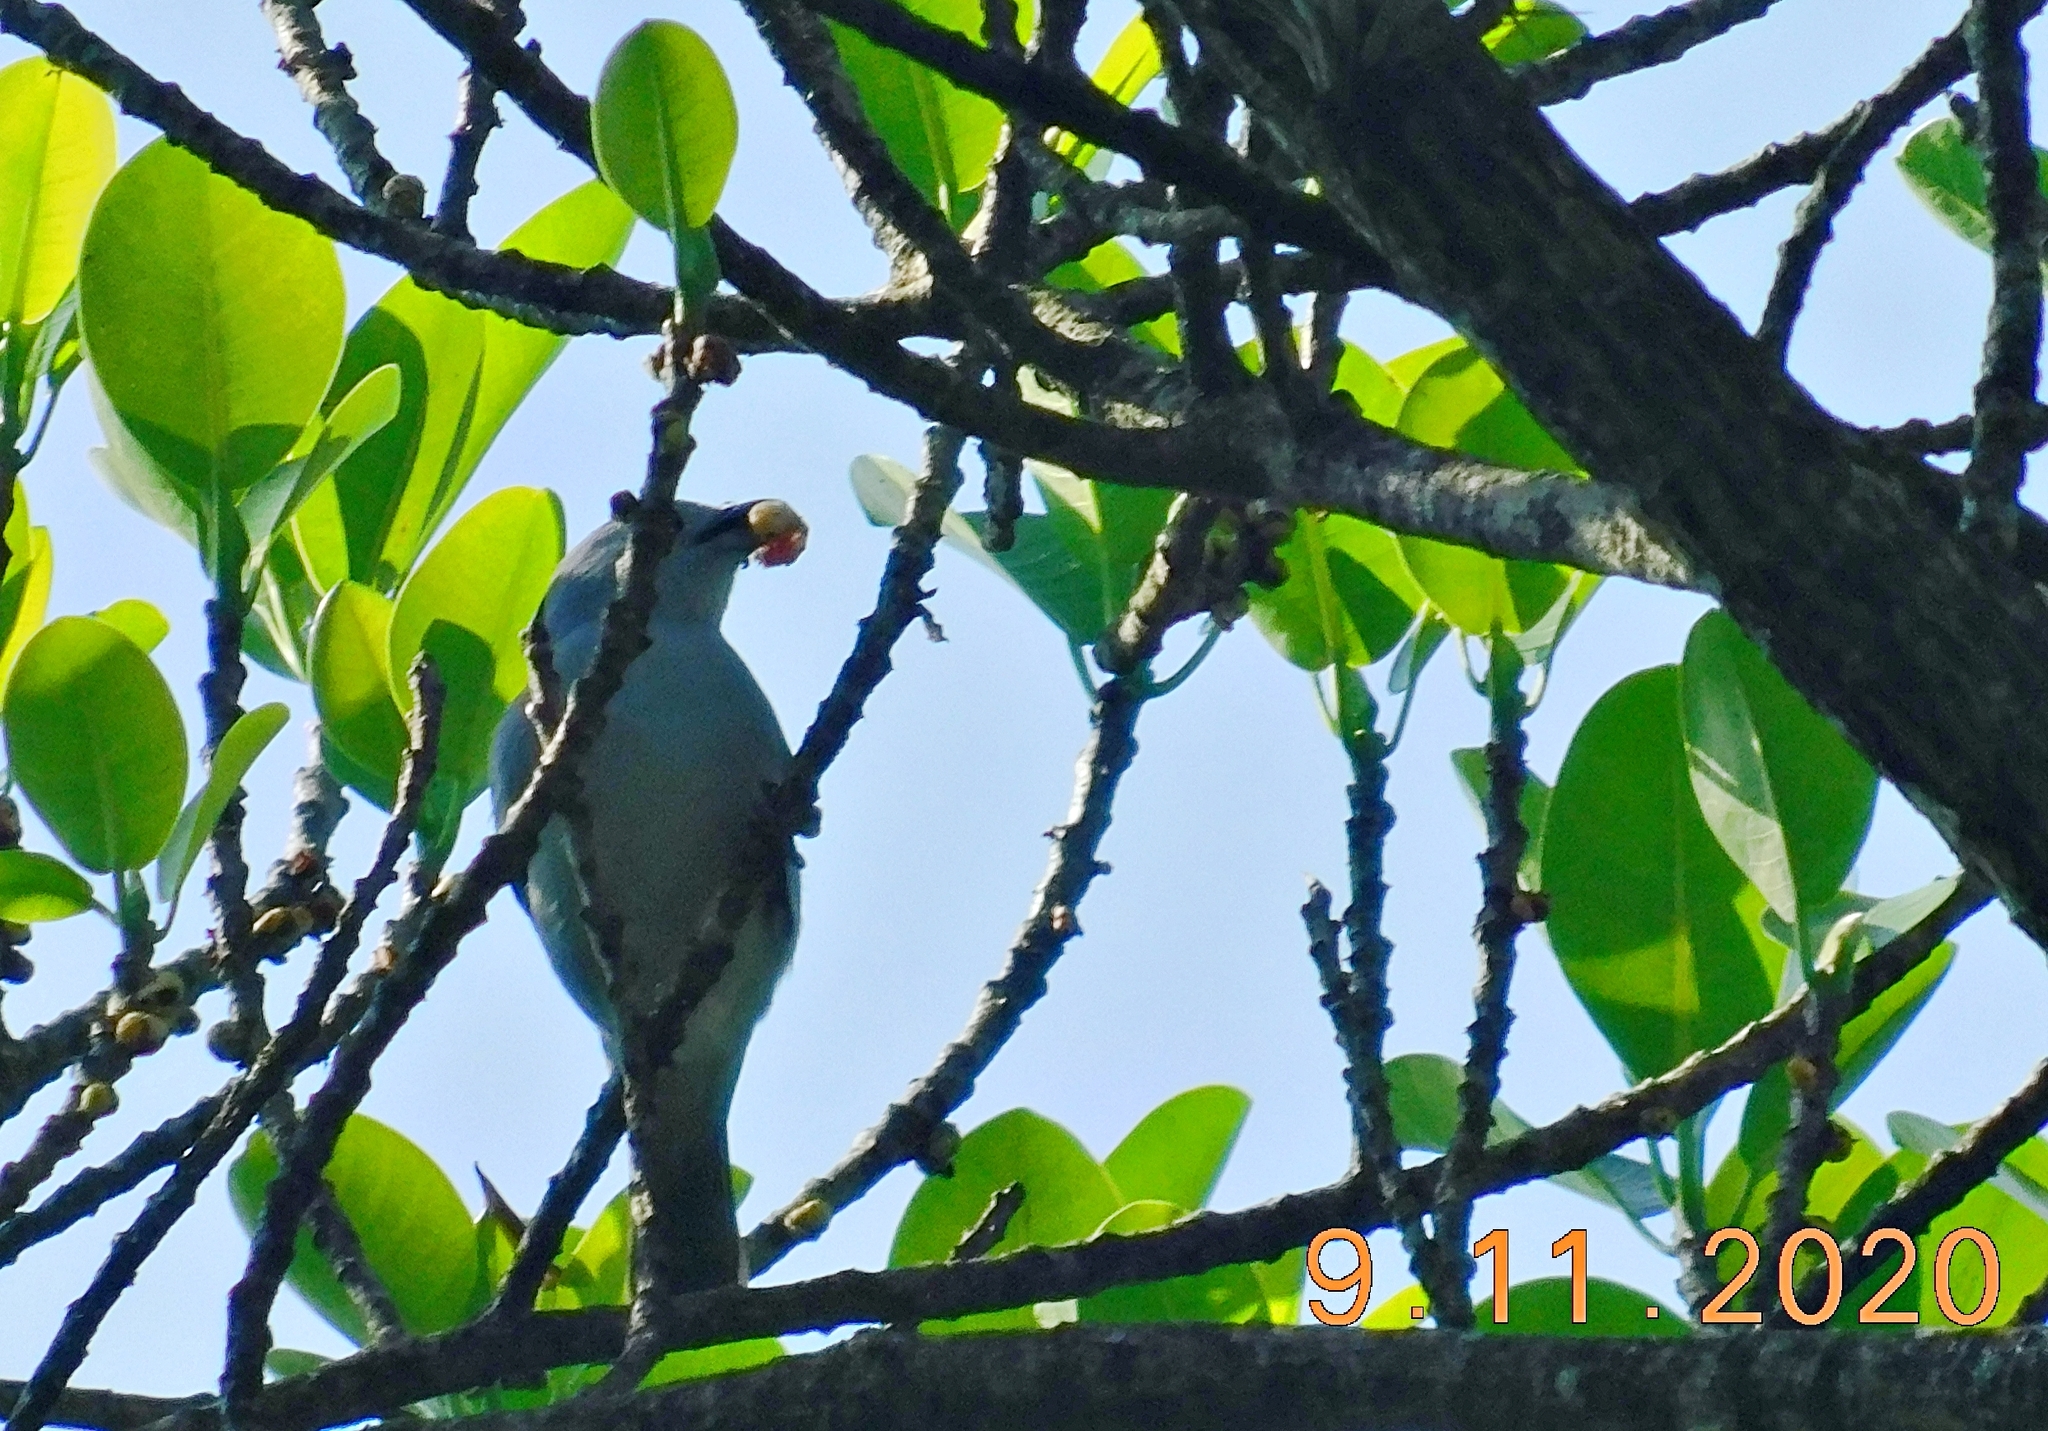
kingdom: Animalia
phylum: Chordata
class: Aves
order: Passeriformes
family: Thraupidae
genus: Thraupis
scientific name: Thraupis episcopus
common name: Blue-grey tanager
